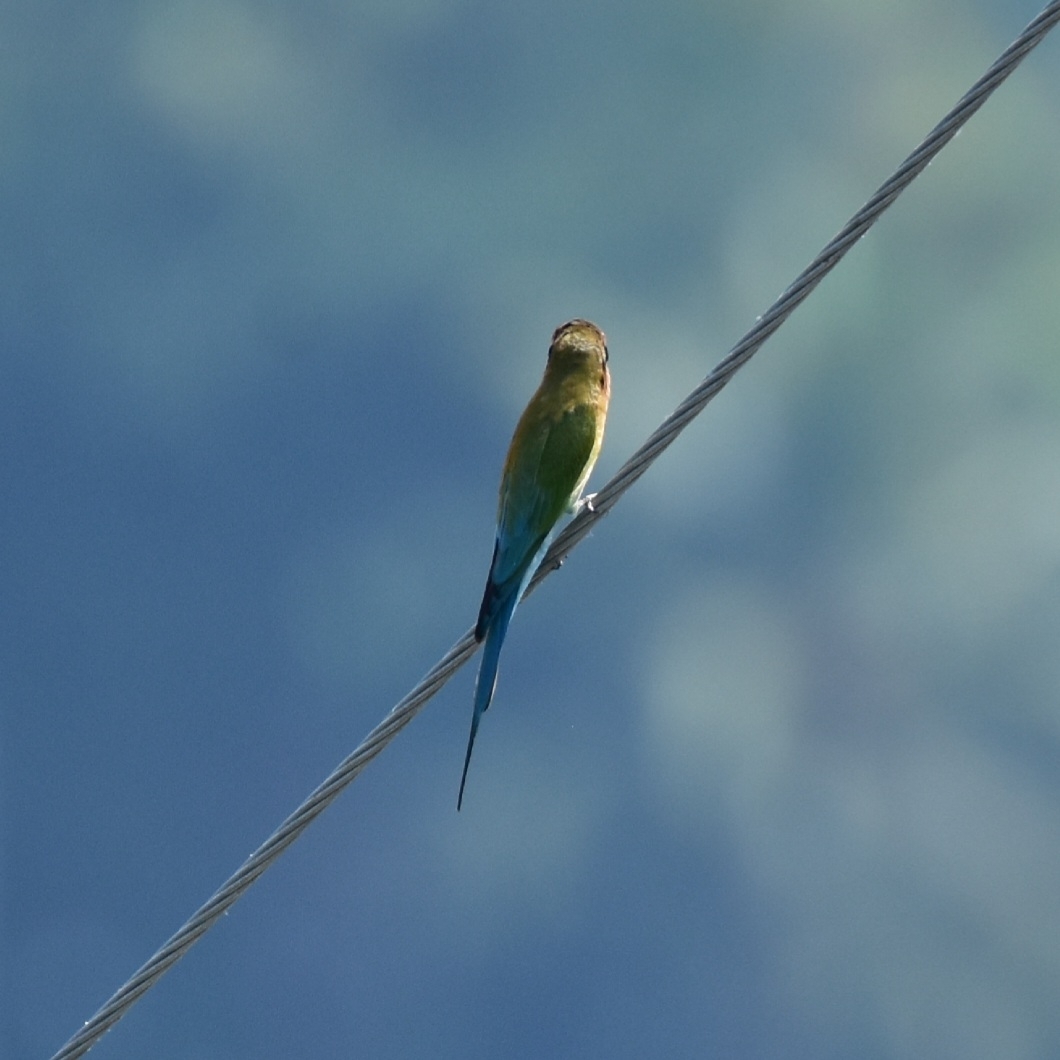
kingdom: Animalia
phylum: Chordata
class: Aves
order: Coraciiformes
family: Meropidae
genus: Merops
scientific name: Merops philippinus
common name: Blue-tailed bee-eater
